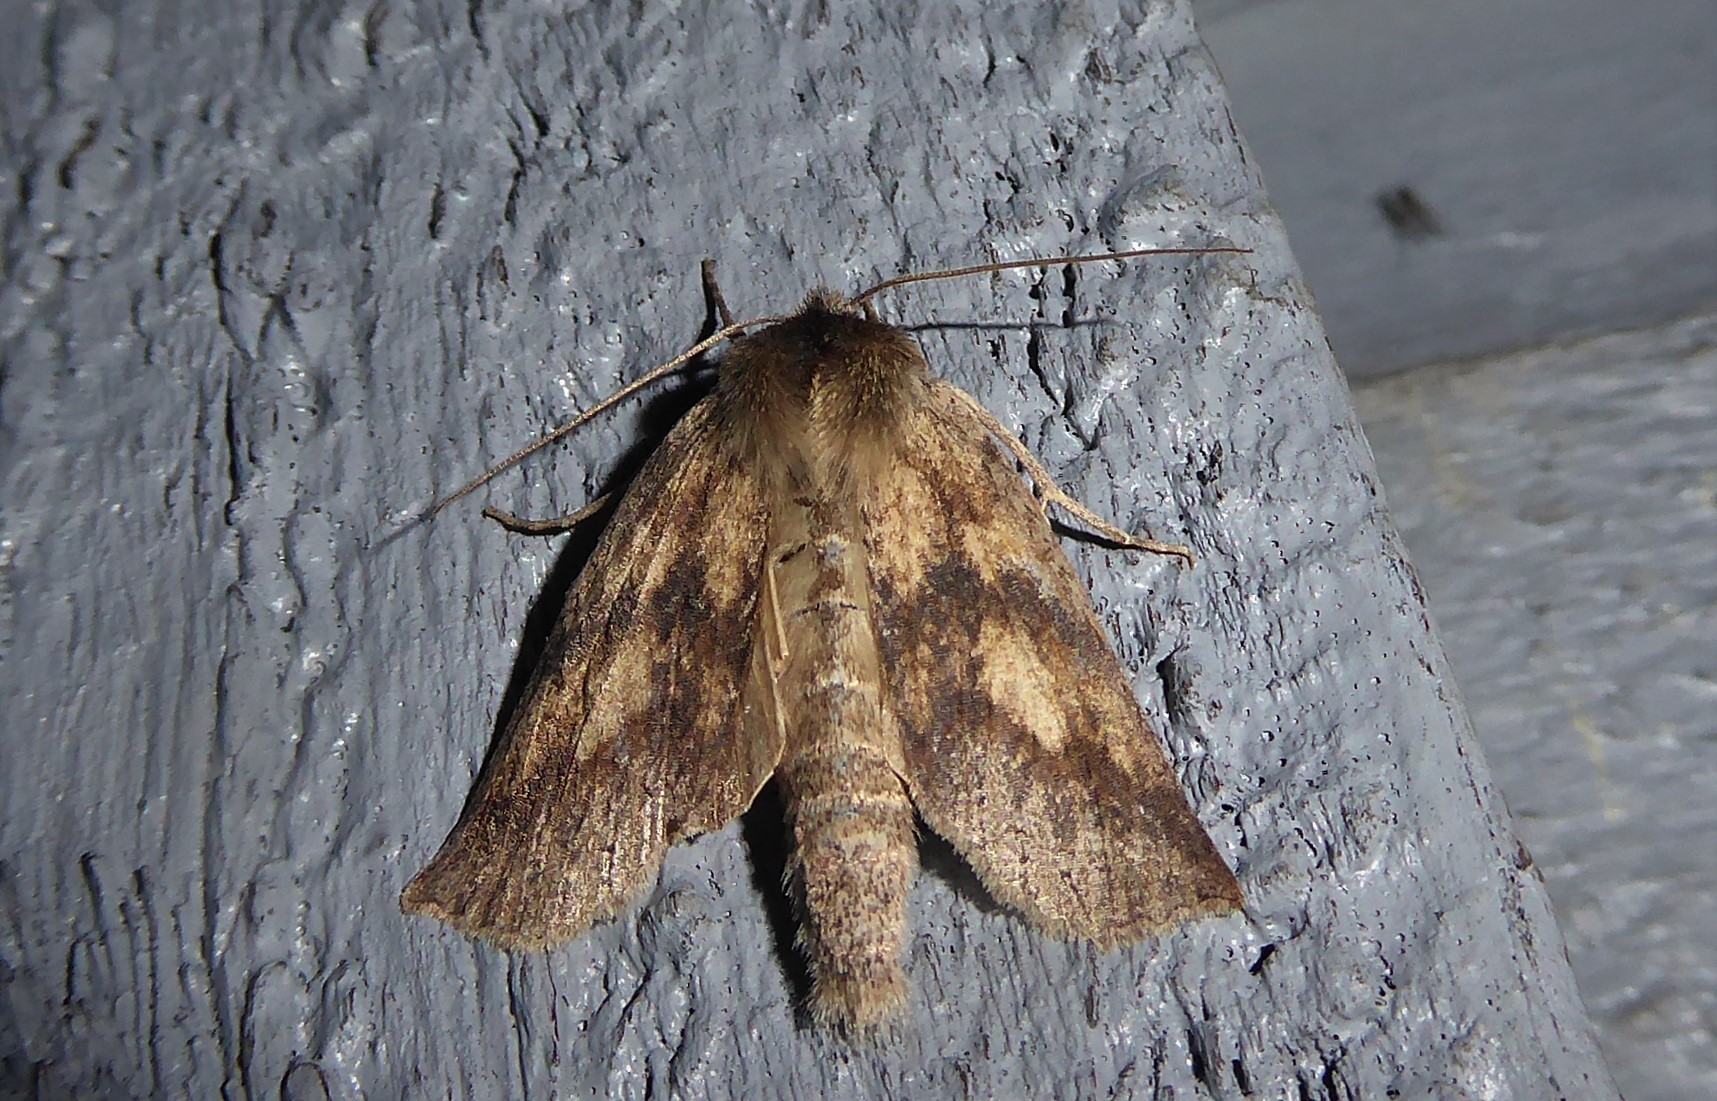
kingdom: Animalia
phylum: Arthropoda
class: Insecta
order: Lepidoptera
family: Geometridae
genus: Declana
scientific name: Declana leptomera
